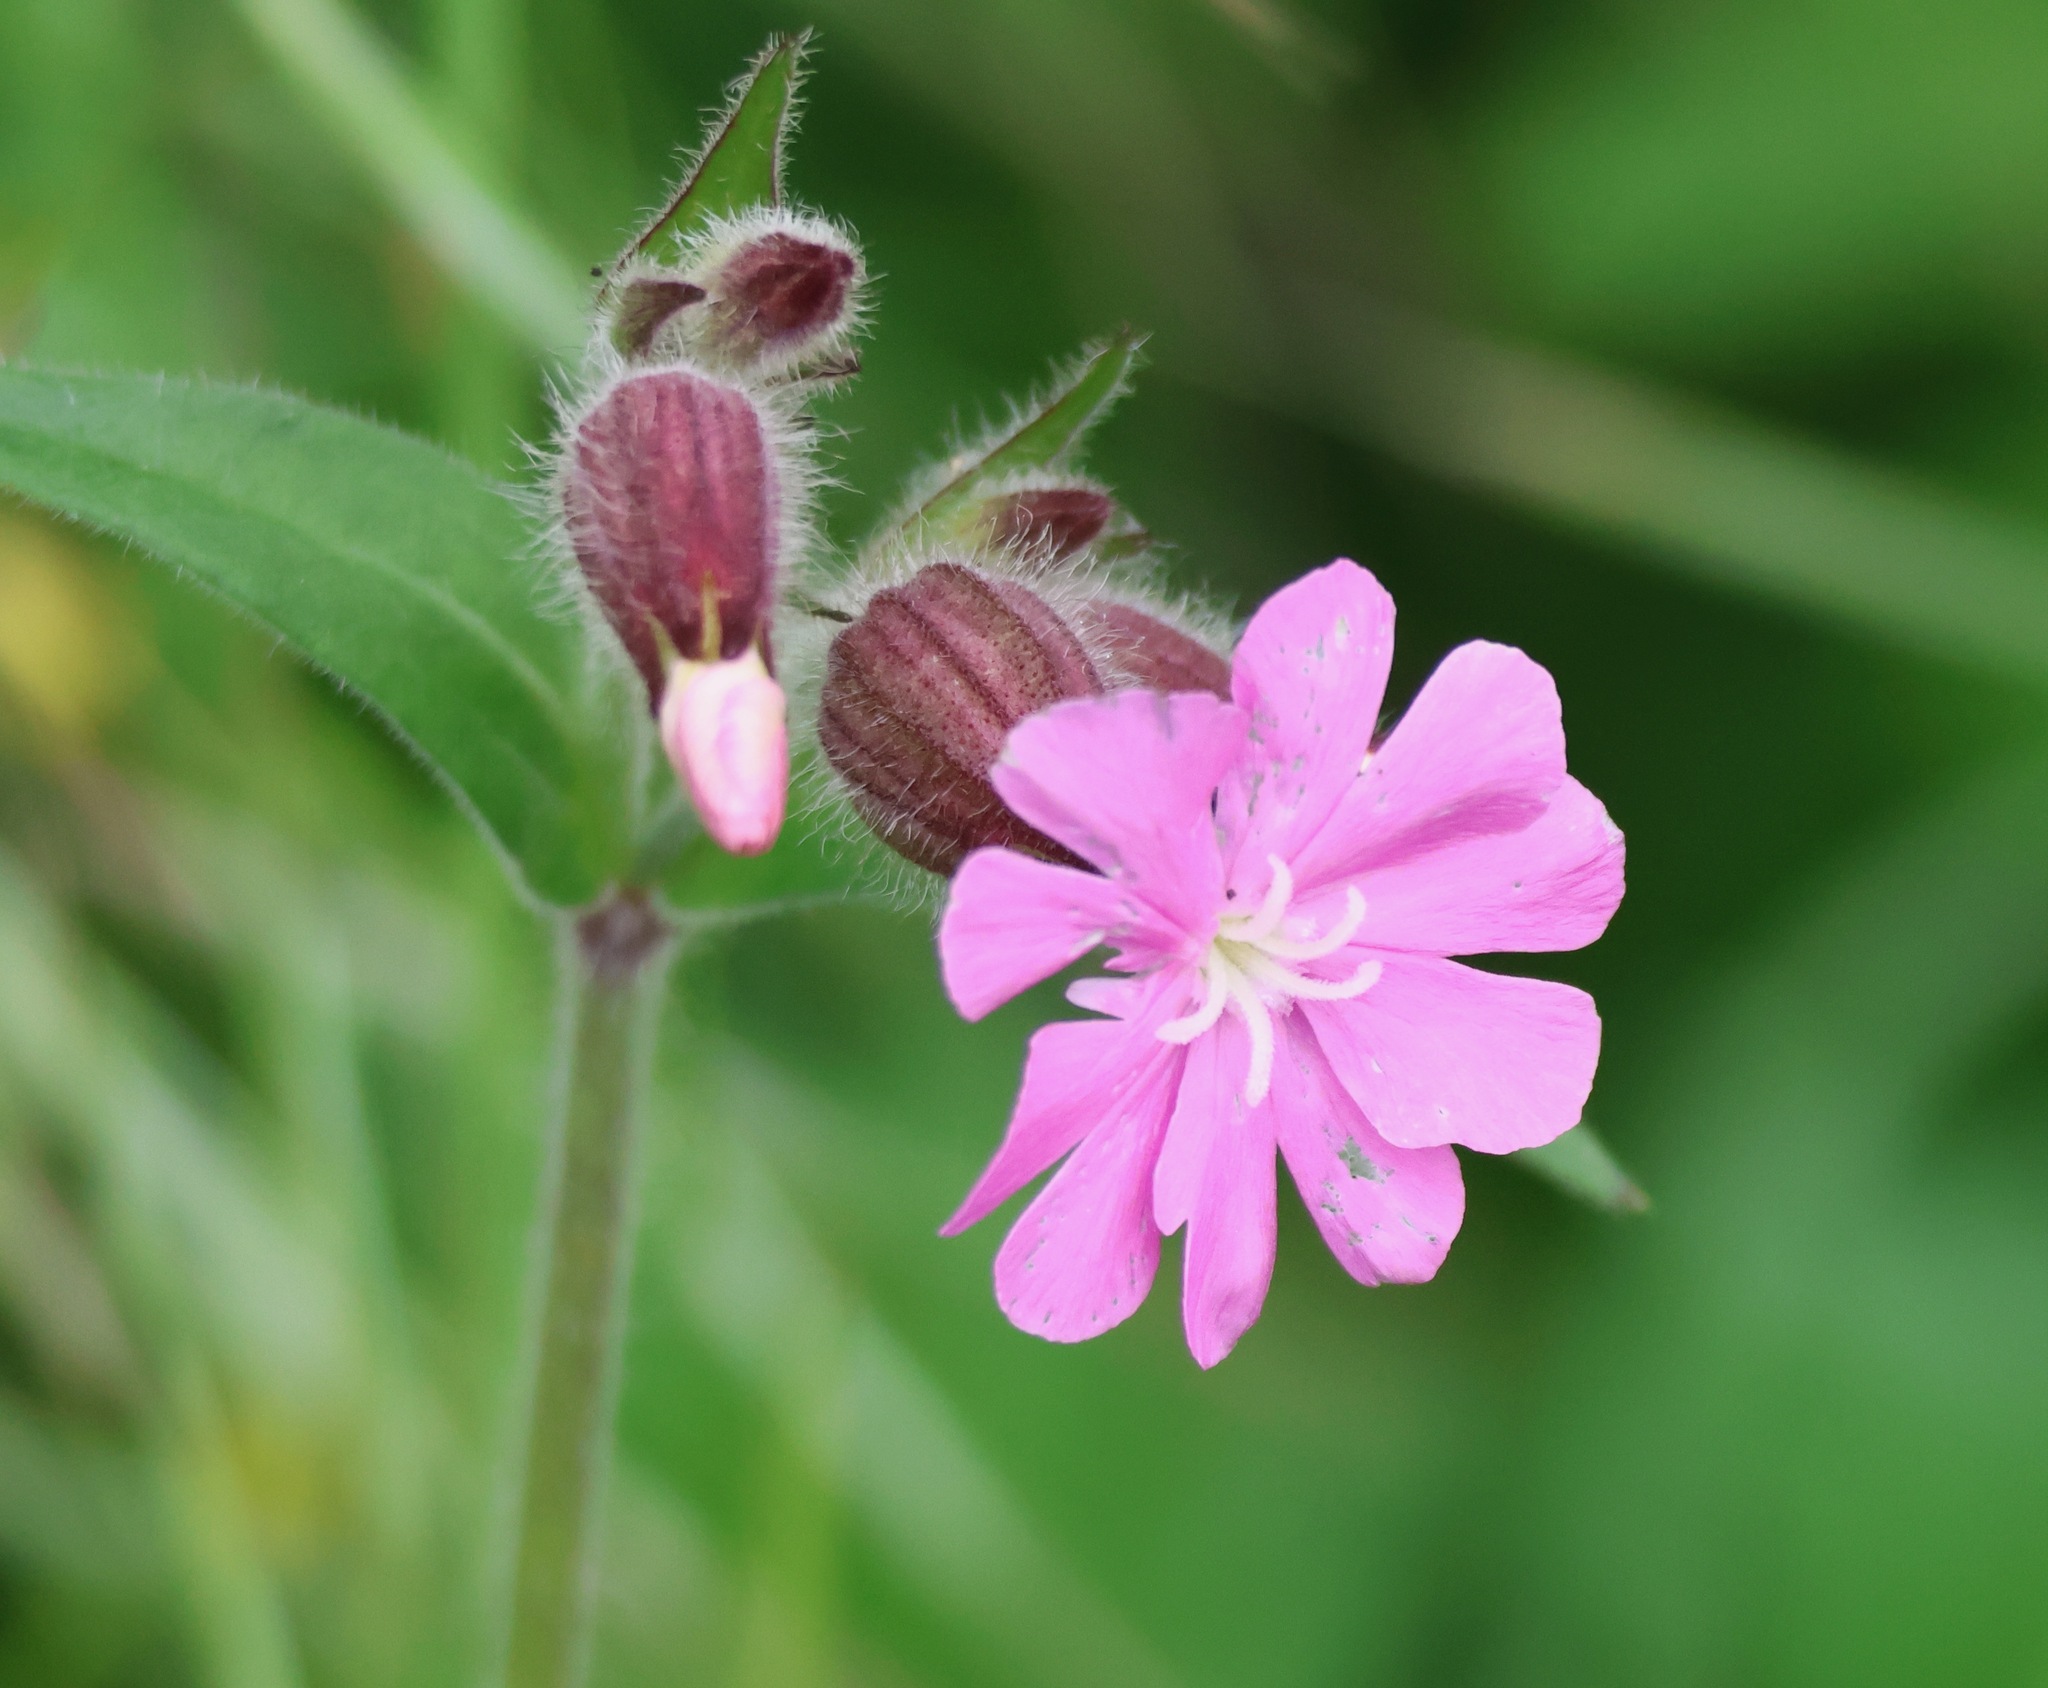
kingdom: Plantae
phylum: Tracheophyta
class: Magnoliopsida
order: Caryophyllales
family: Caryophyllaceae
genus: Silene
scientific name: Silene dioica
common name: Red campion
